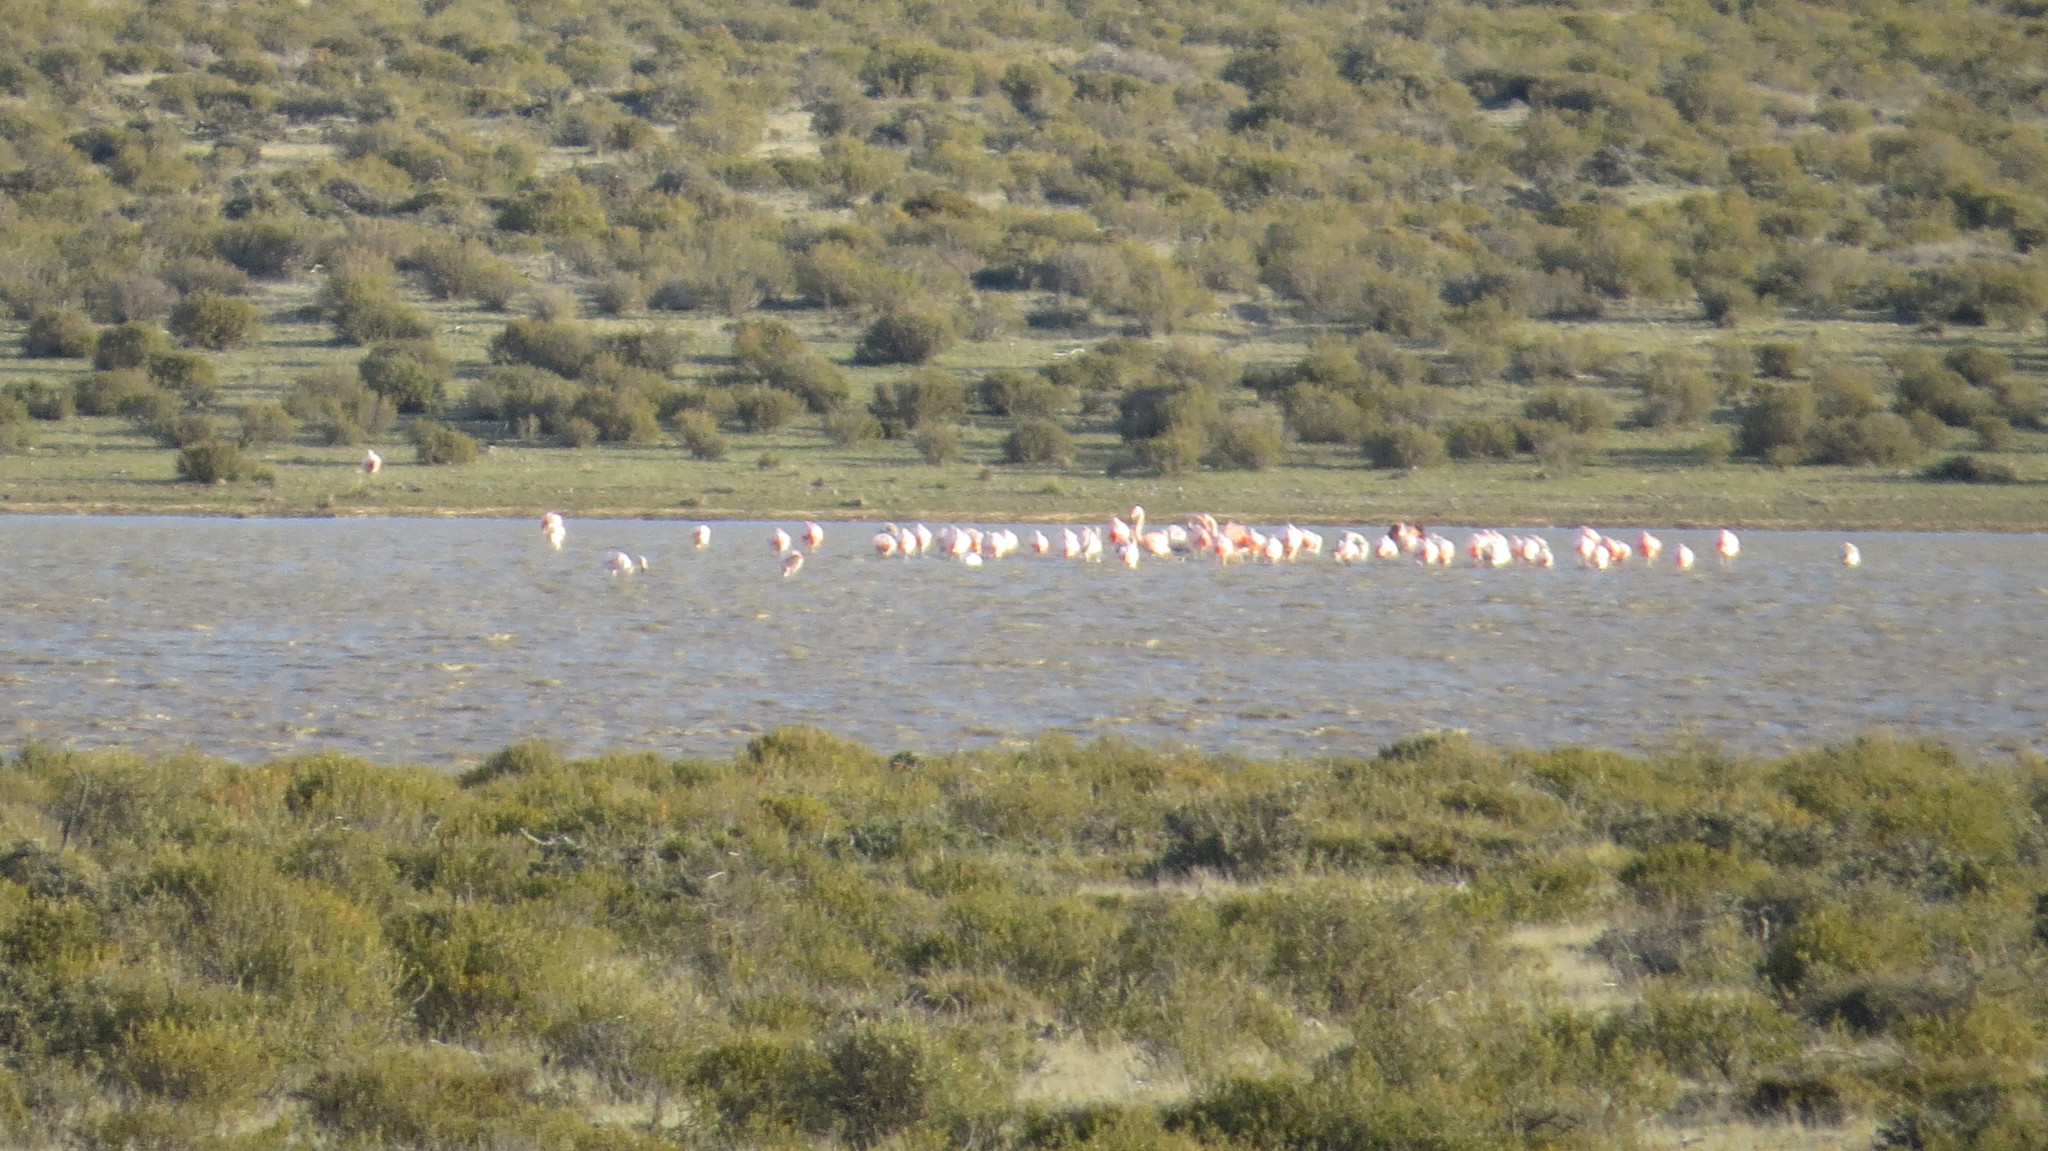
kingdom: Animalia
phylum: Chordata
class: Aves
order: Phoenicopteriformes
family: Phoenicopteridae
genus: Phoenicopterus
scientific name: Phoenicopterus chilensis
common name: Chilean flamingo
